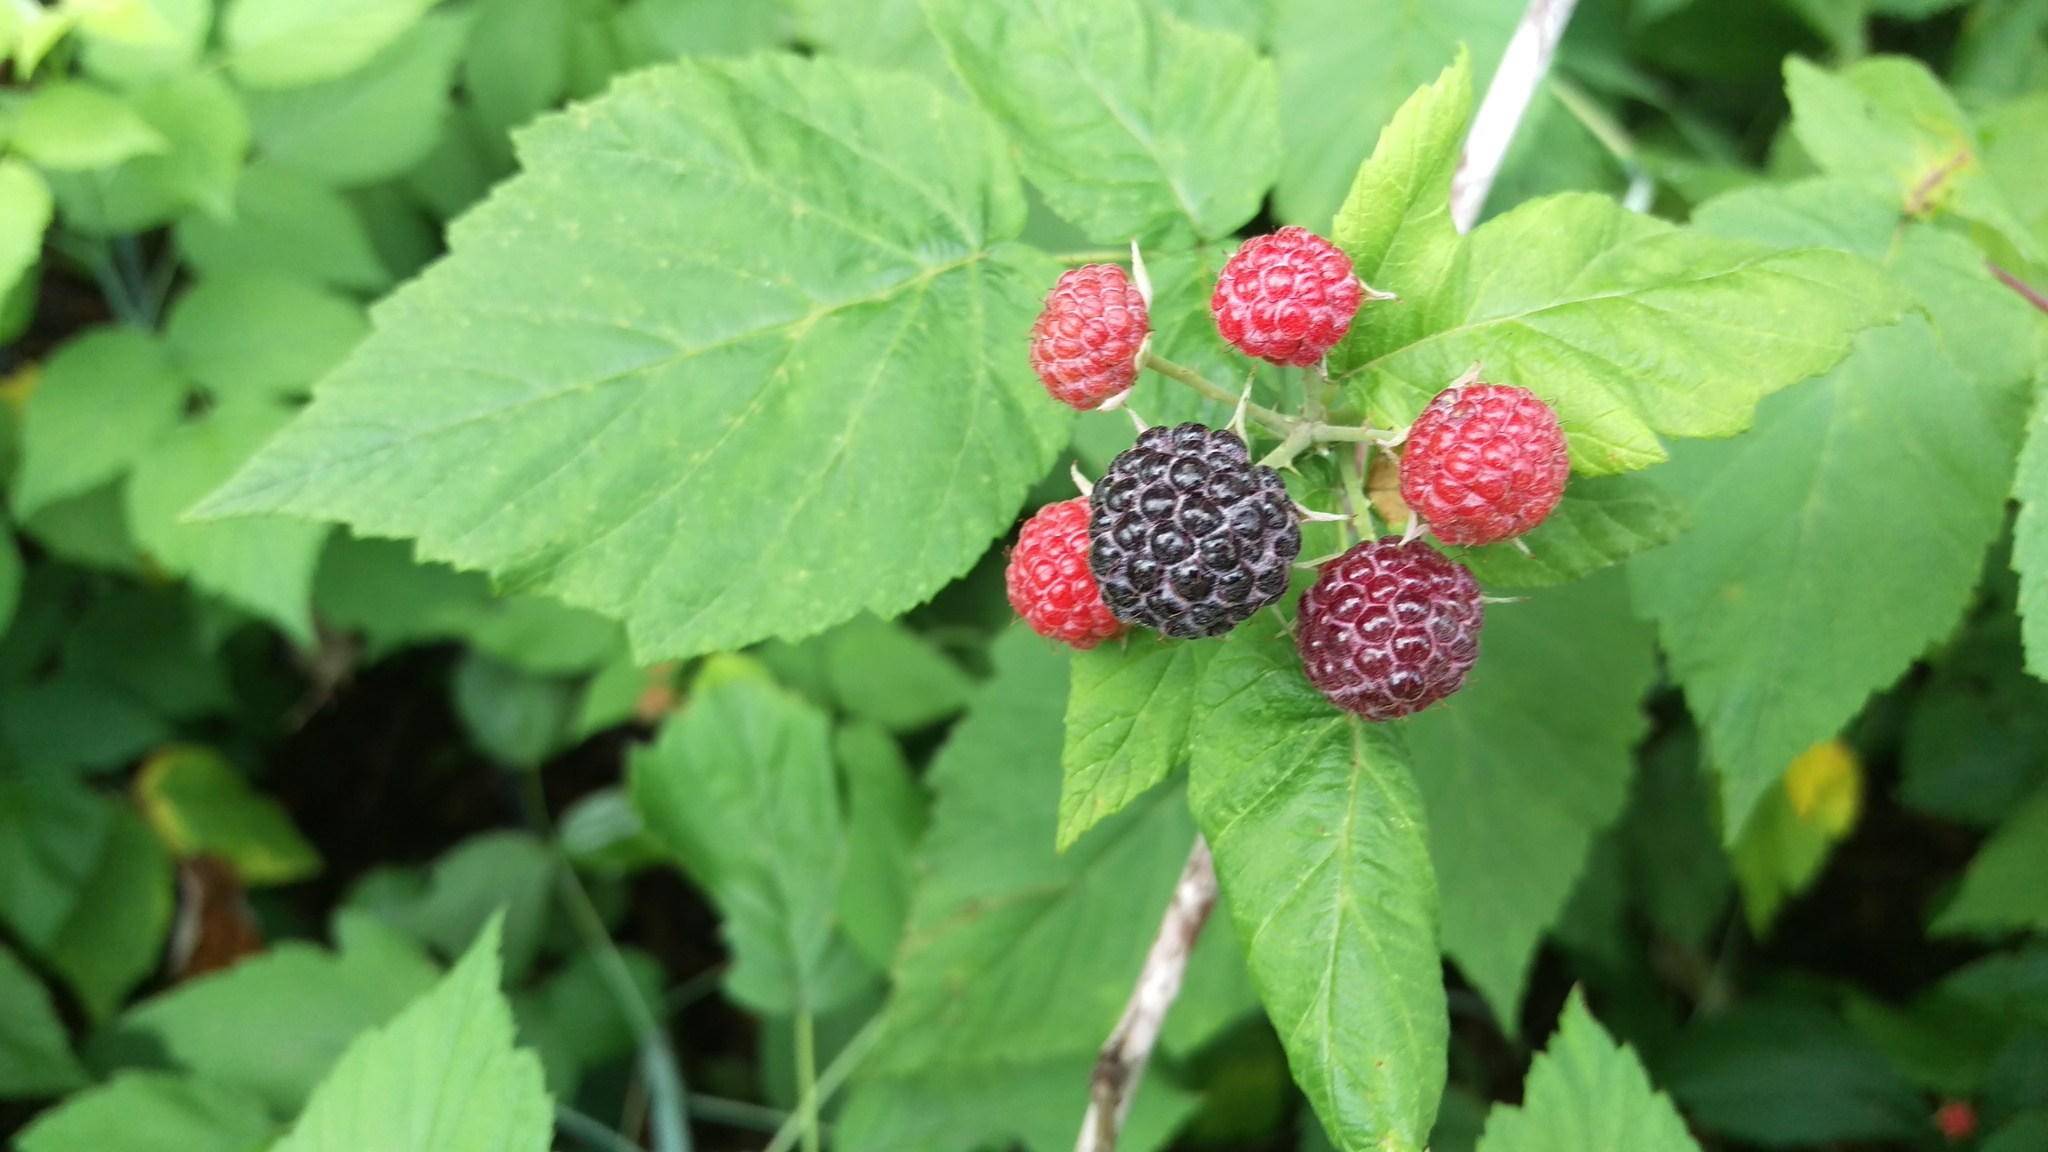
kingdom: Plantae
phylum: Tracheophyta
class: Magnoliopsida
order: Rosales
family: Rosaceae
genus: Rubus
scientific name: Rubus occidentalis
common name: Black raspberry
